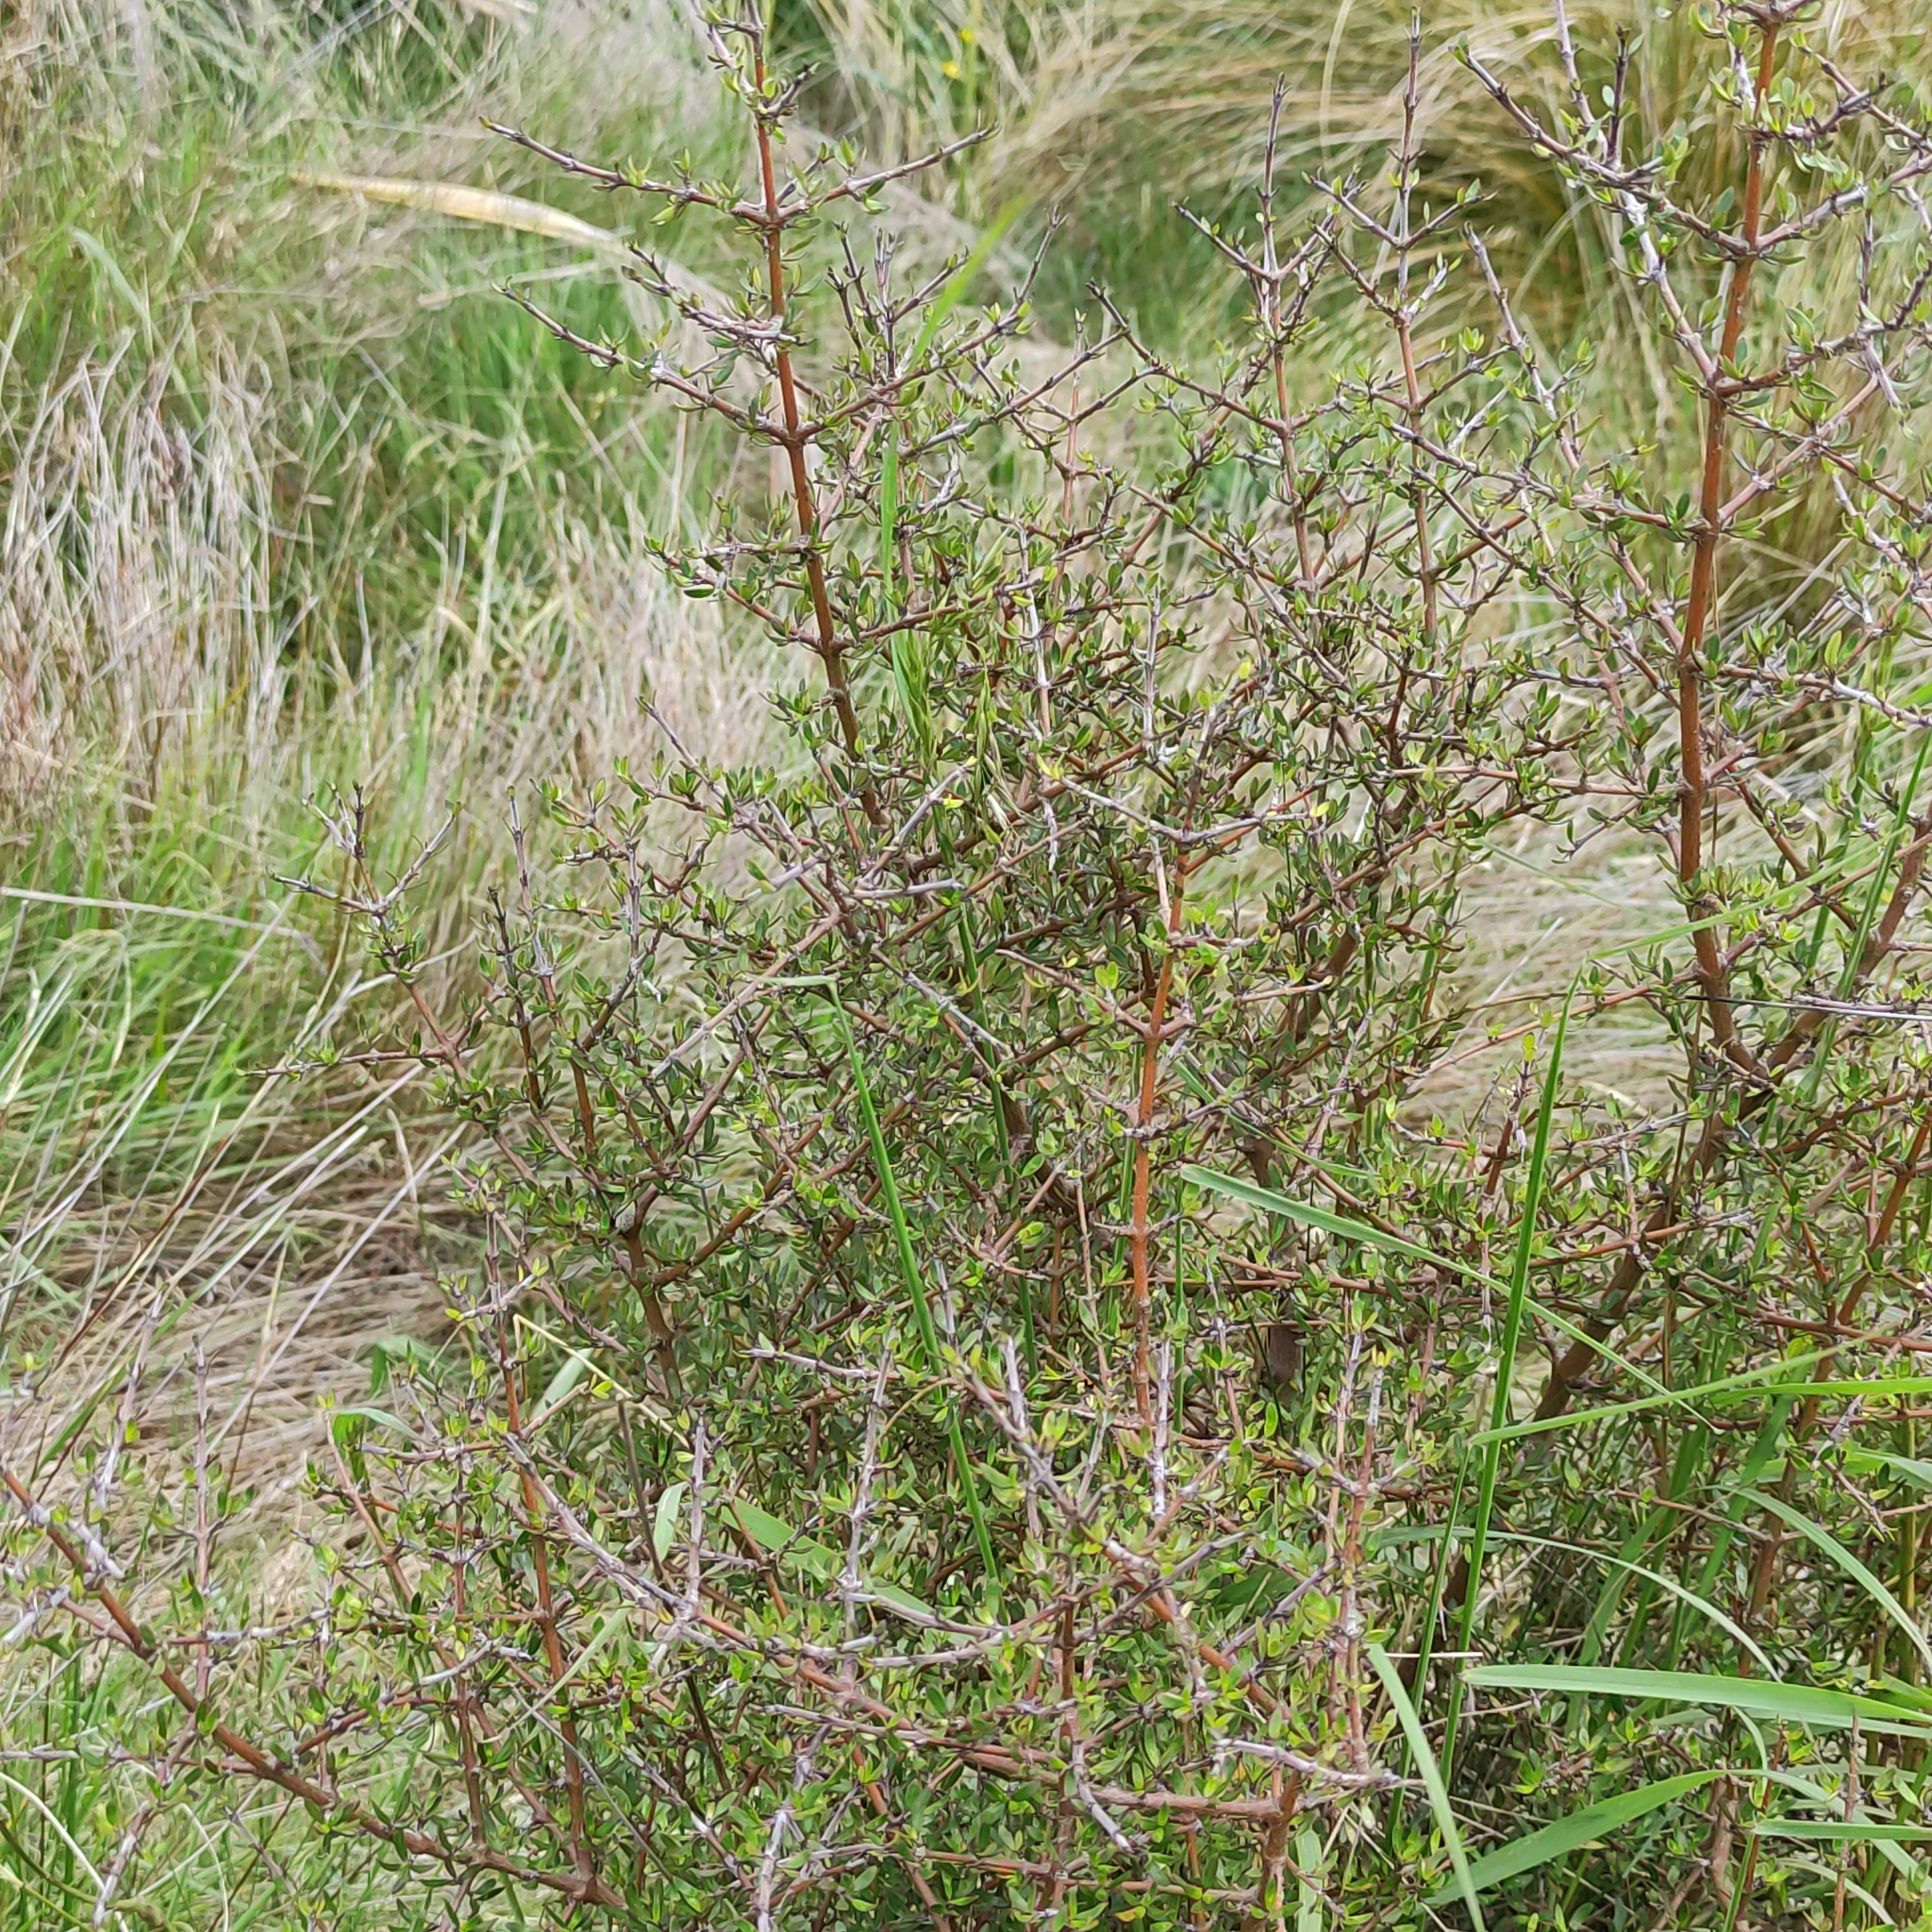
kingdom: Plantae
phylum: Tracheophyta
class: Magnoliopsida
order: Gentianales
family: Rubiaceae
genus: Coprosma
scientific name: Coprosma propinqua
